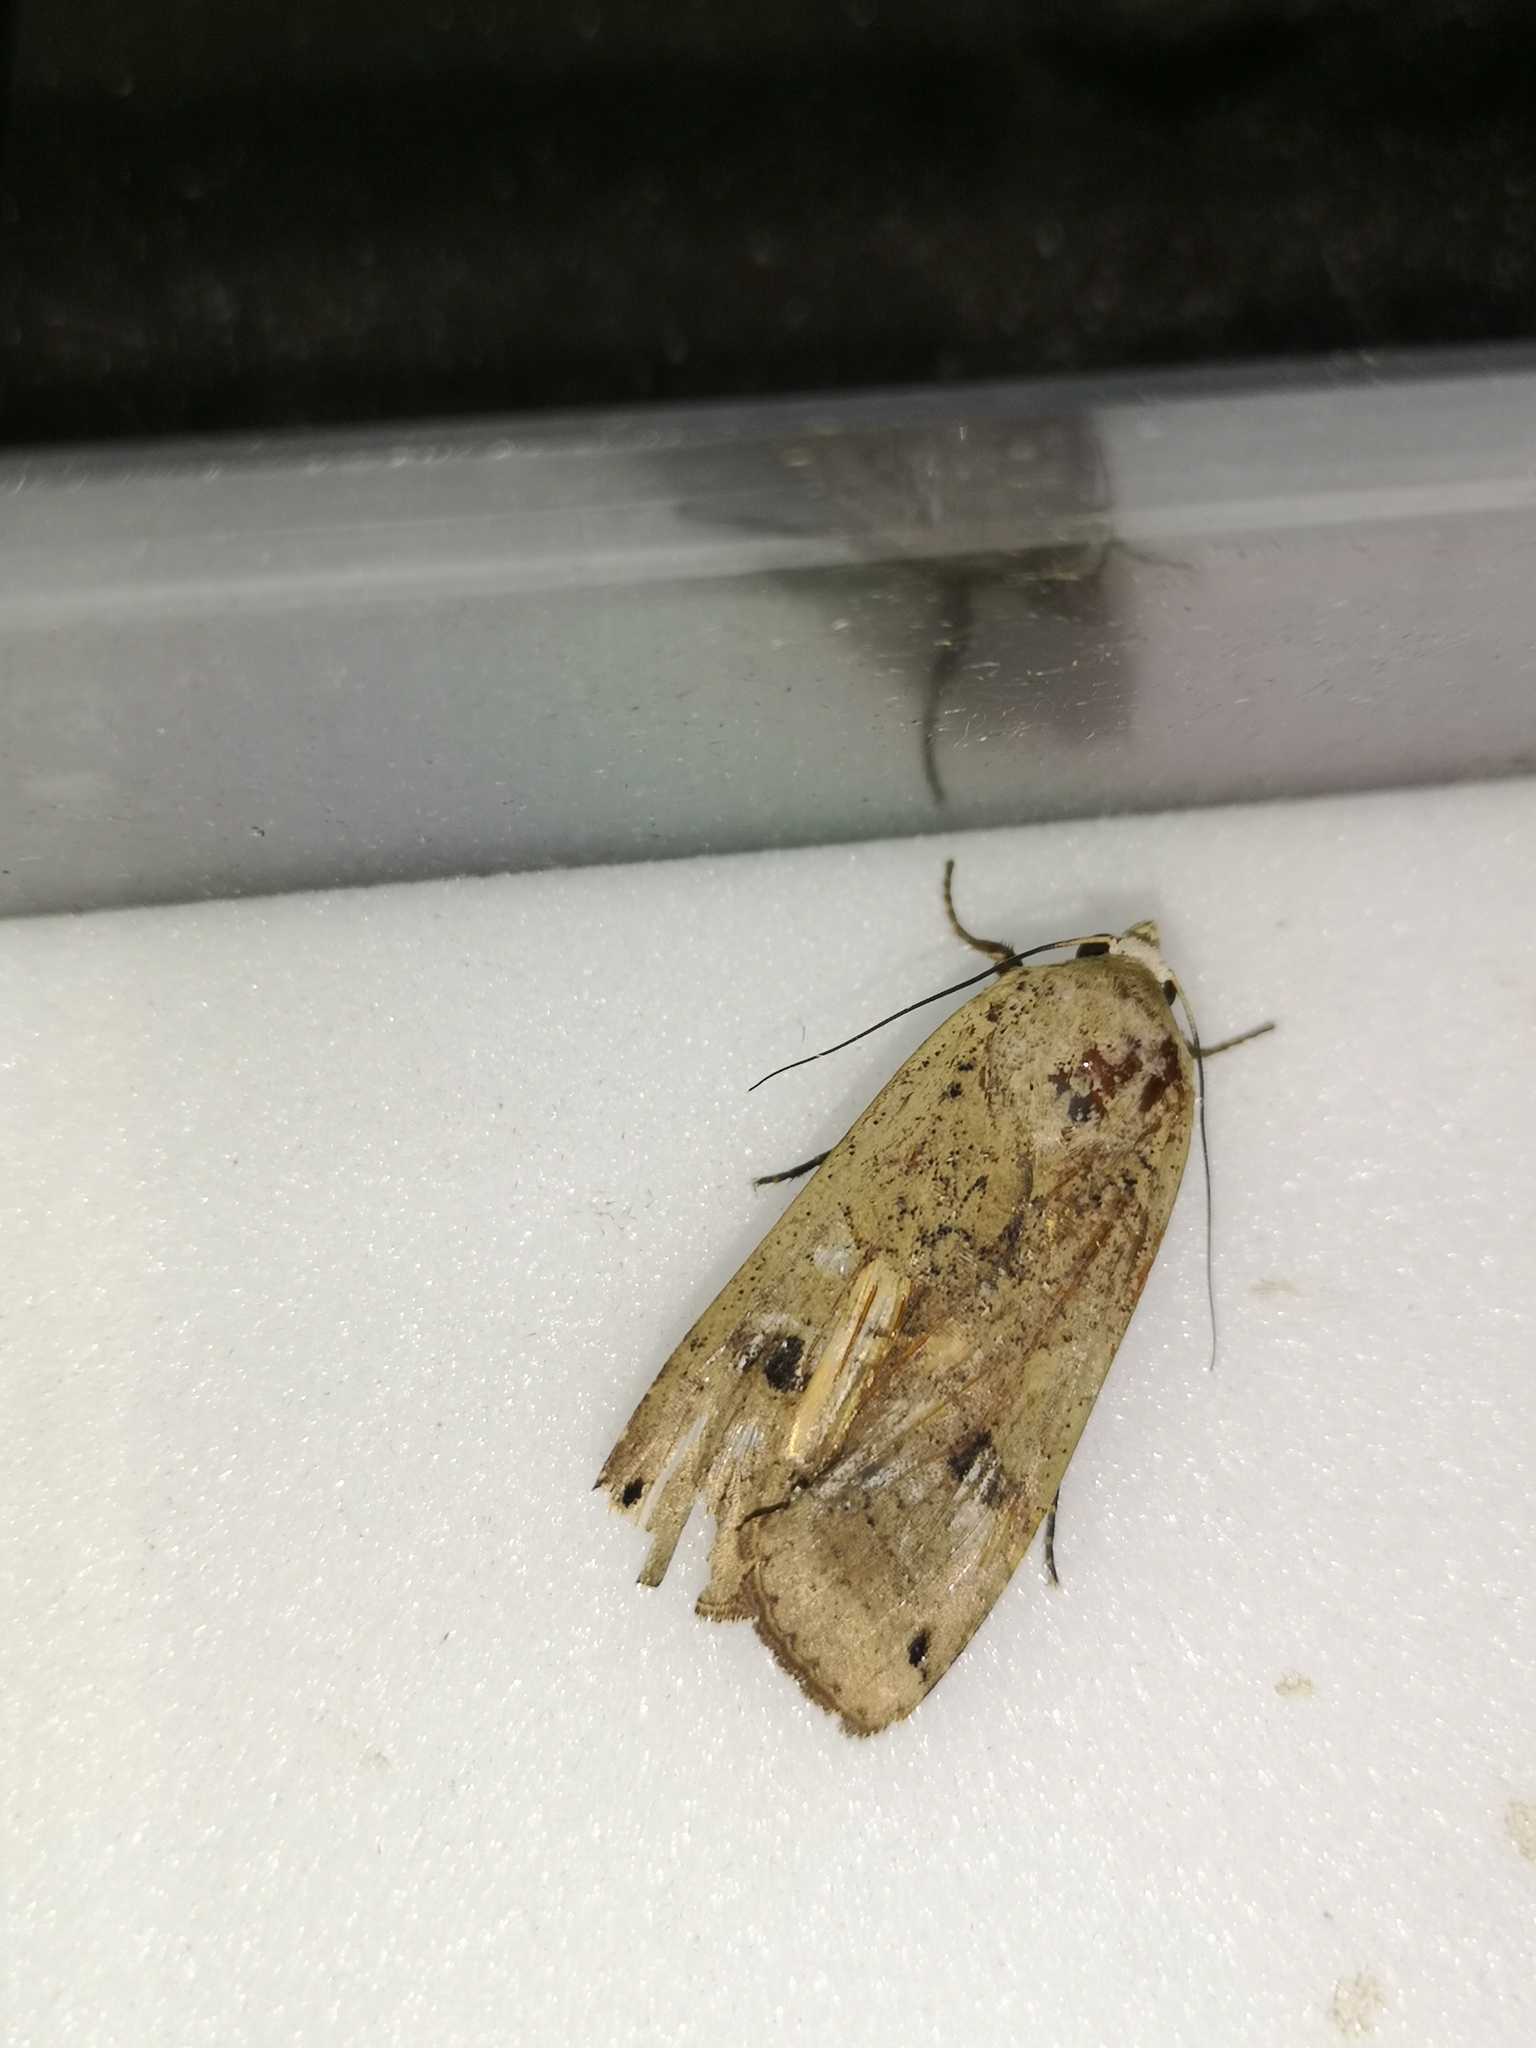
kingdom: Animalia
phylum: Arthropoda
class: Insecta
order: Lepidoptera
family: Noctuidae
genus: Noctua
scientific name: Noctua pronuba
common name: Large yellow underwing
